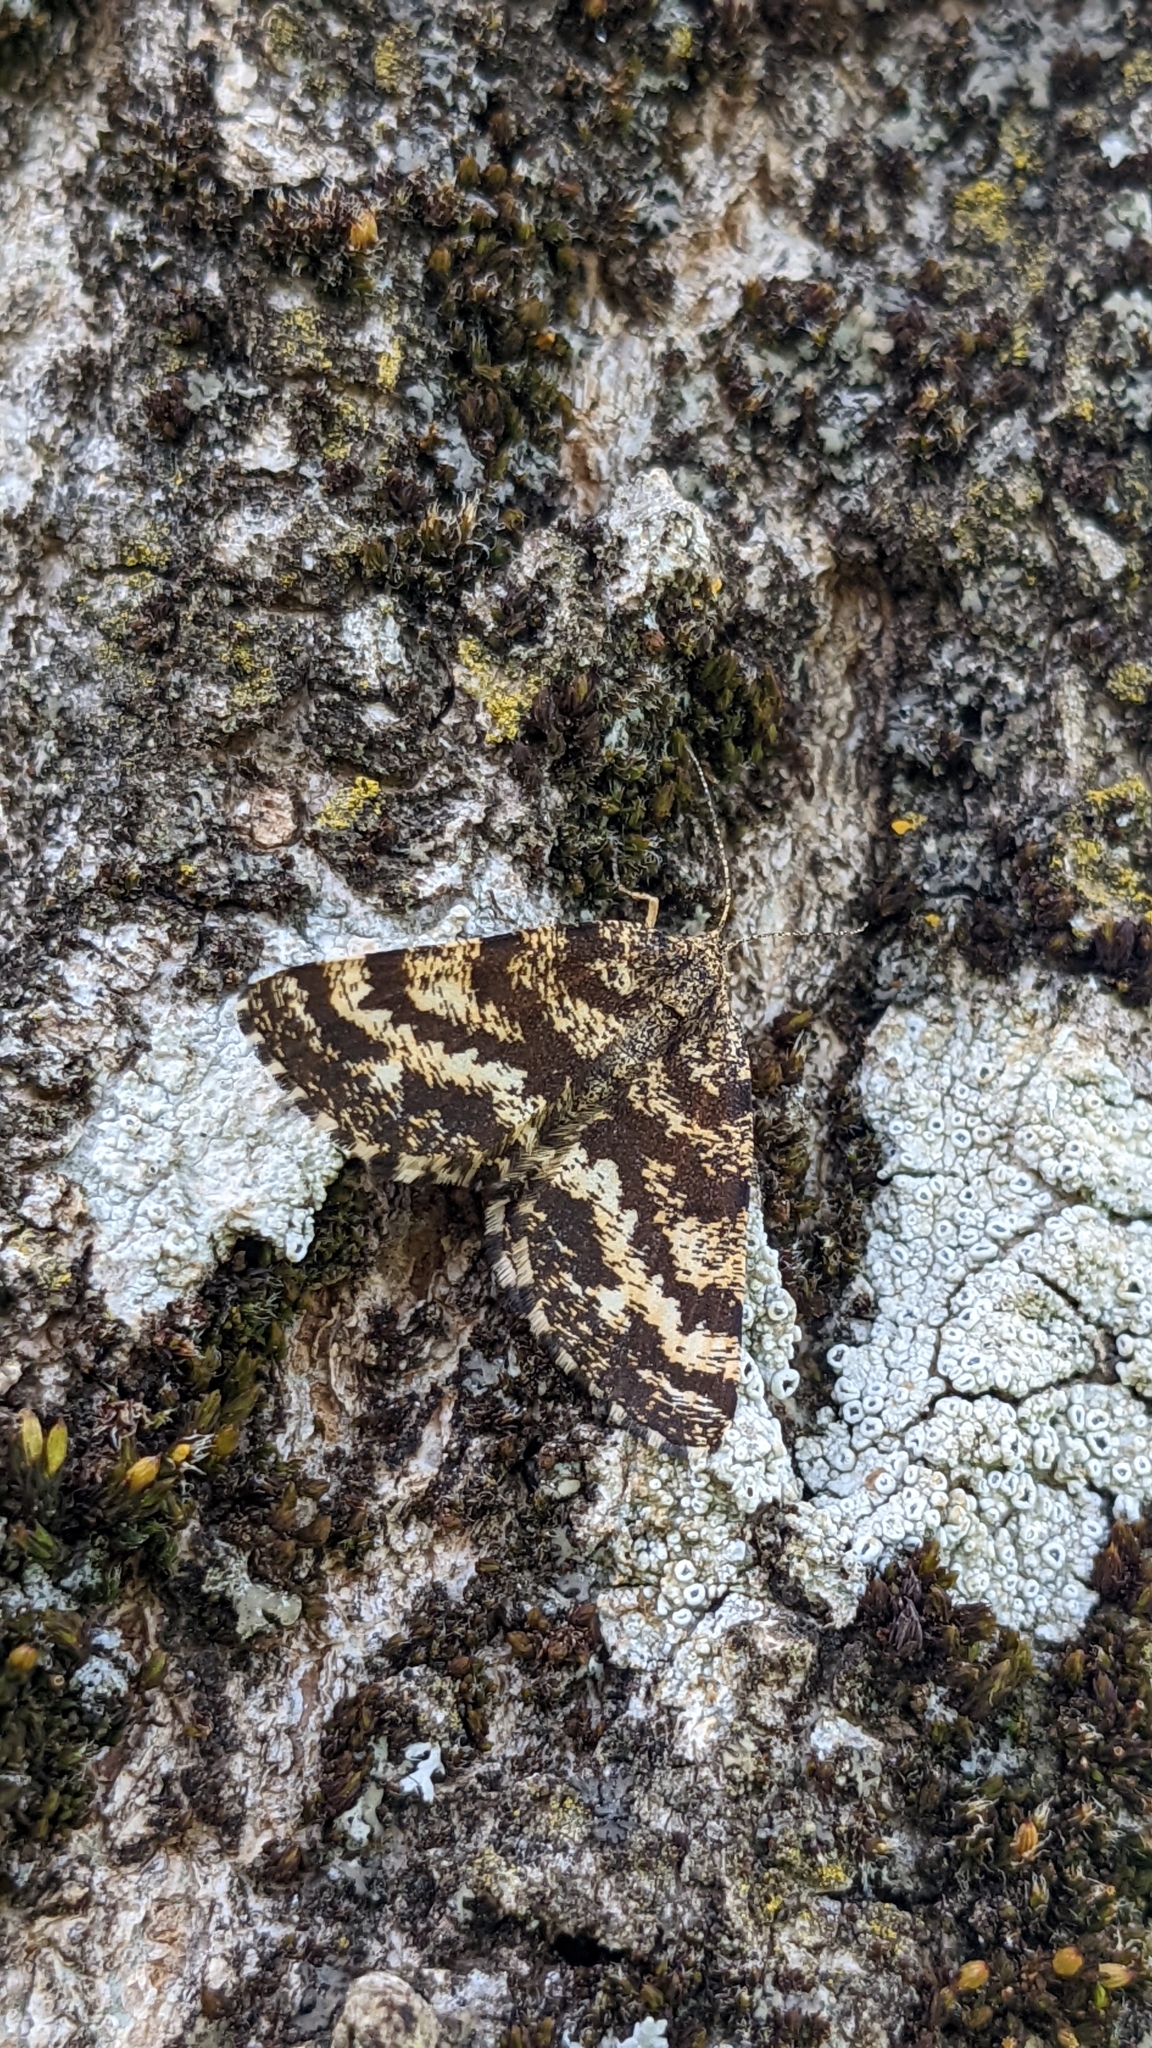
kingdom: Animalia
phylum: Arthropoda
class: Insecta
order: Lepidoptera
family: Geometridae
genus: Ematurga
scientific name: Ematurga atomaria
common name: Common heath
